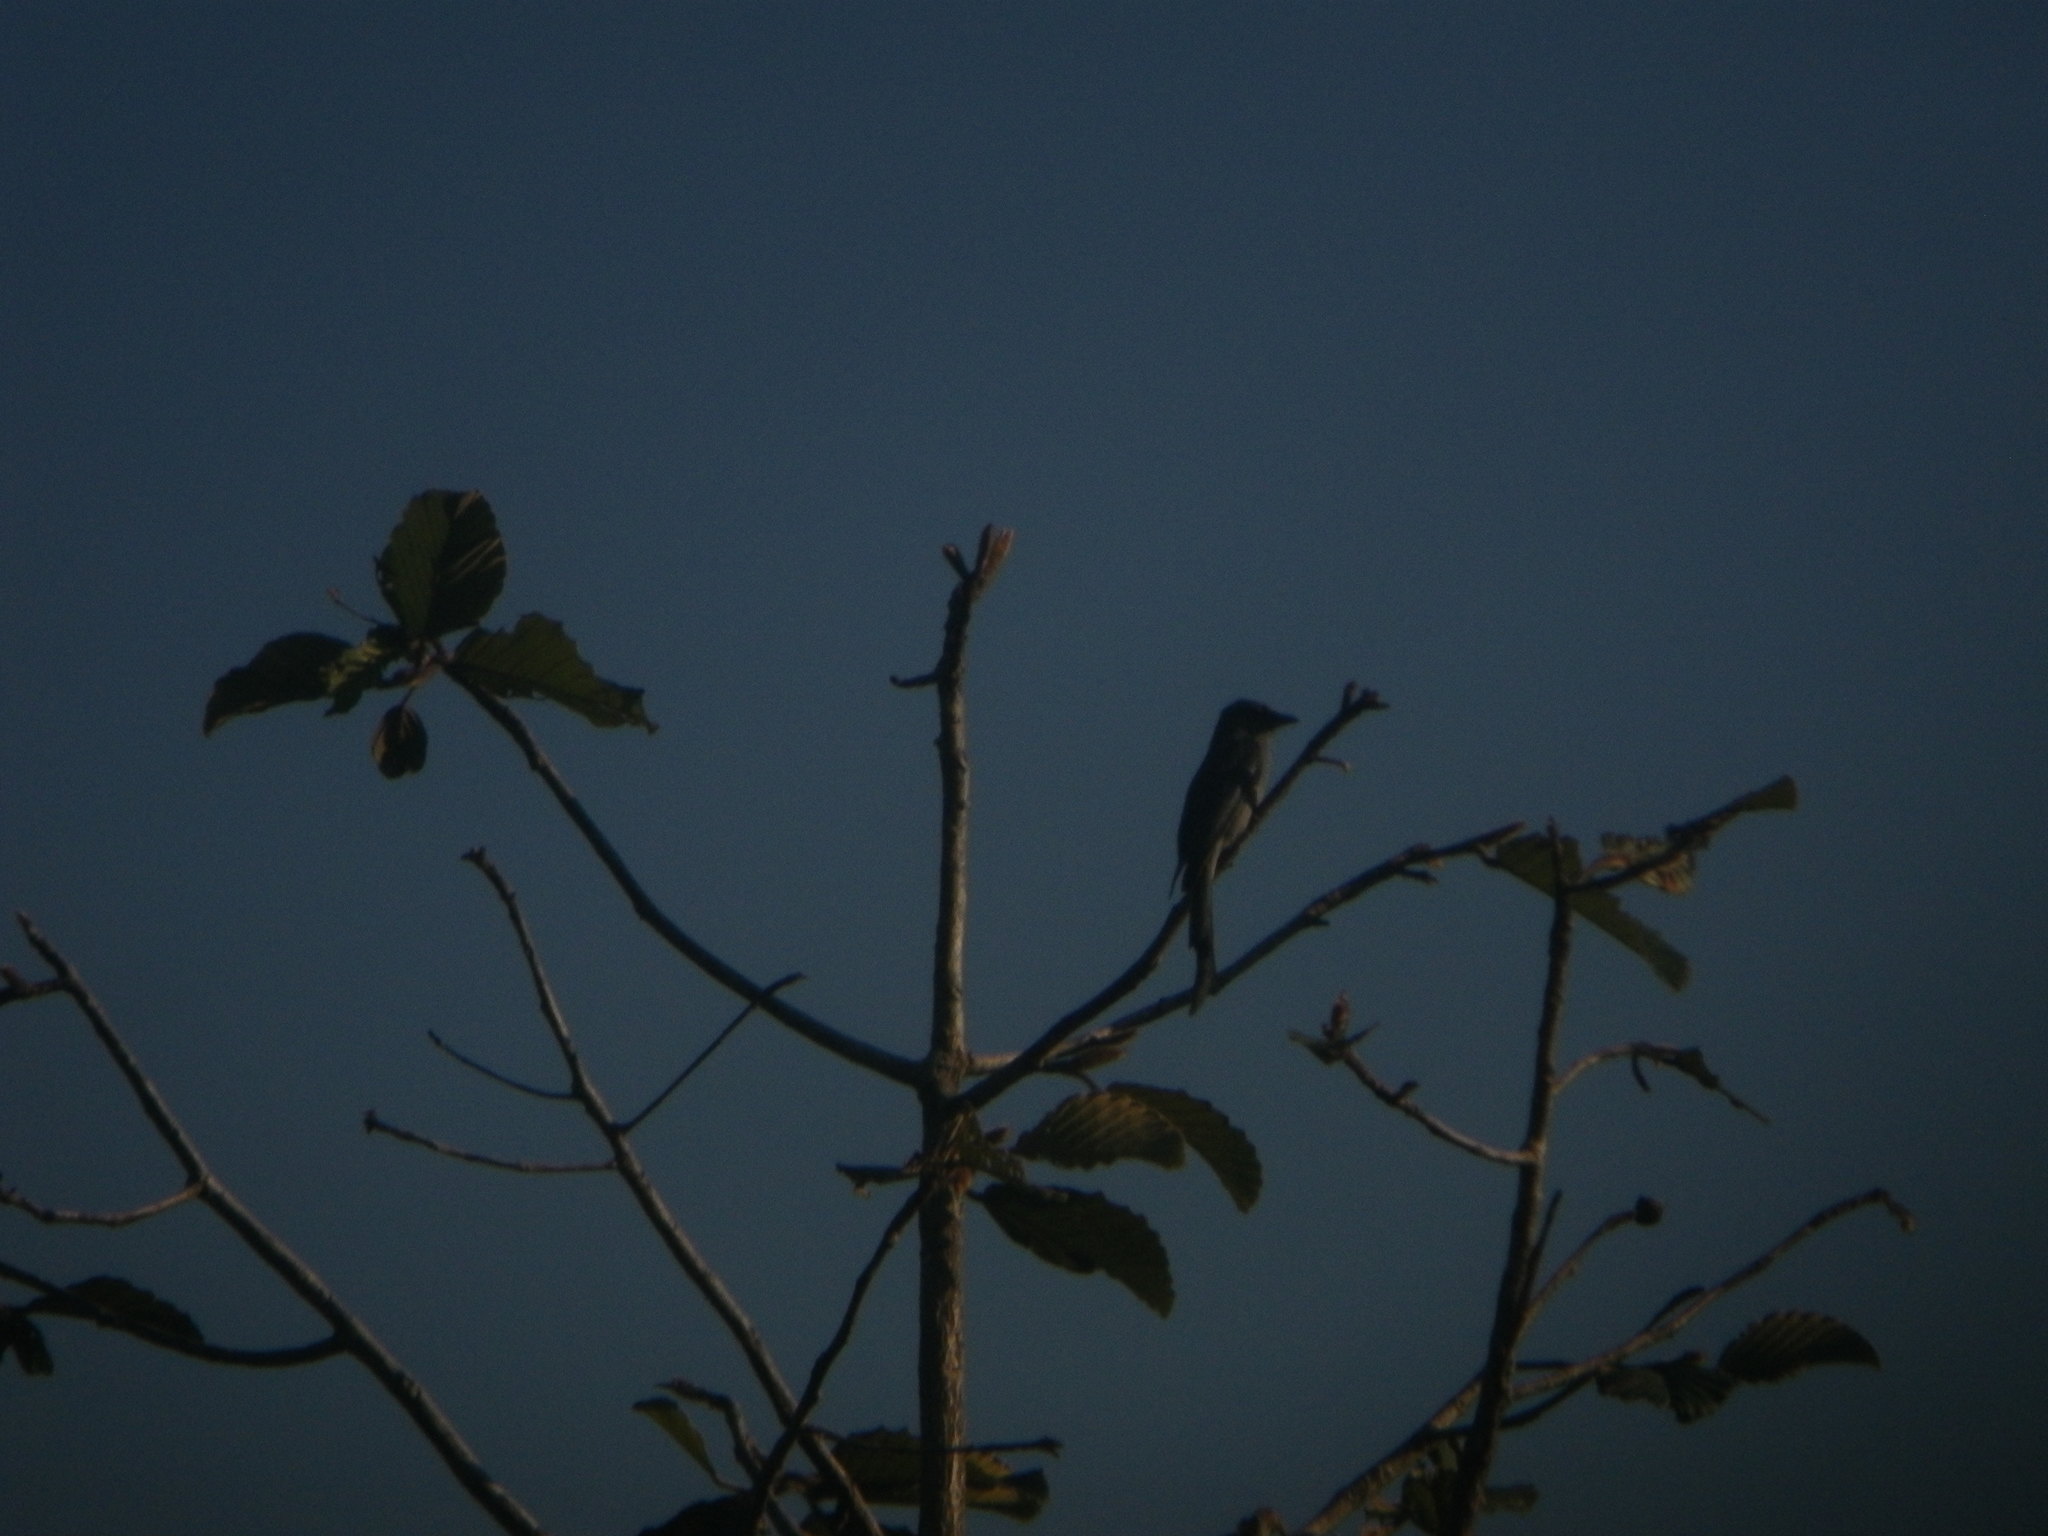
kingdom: Animalia
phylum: Chordata
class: Aves
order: Passeriformes
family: Dicruridae
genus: Dicrurus
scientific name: Dicrurus leucophaeus
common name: Ashy drongo
